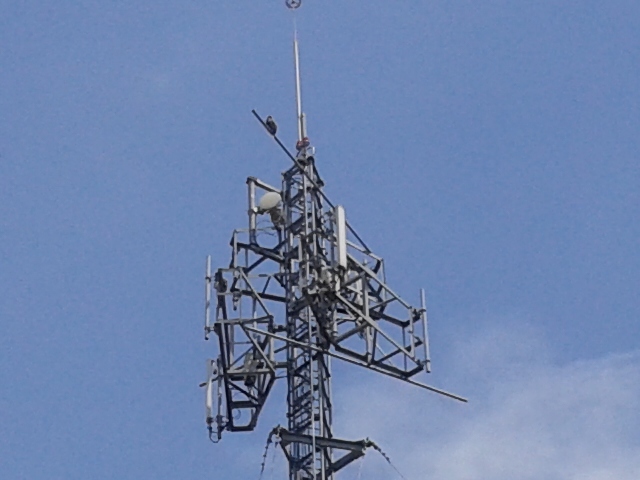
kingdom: Animalia
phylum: Chordata
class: Aves
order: Accipitriformes
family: Accipitridae
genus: Parabuteo
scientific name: Parabuteo unicinctus
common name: Harris's hawk
